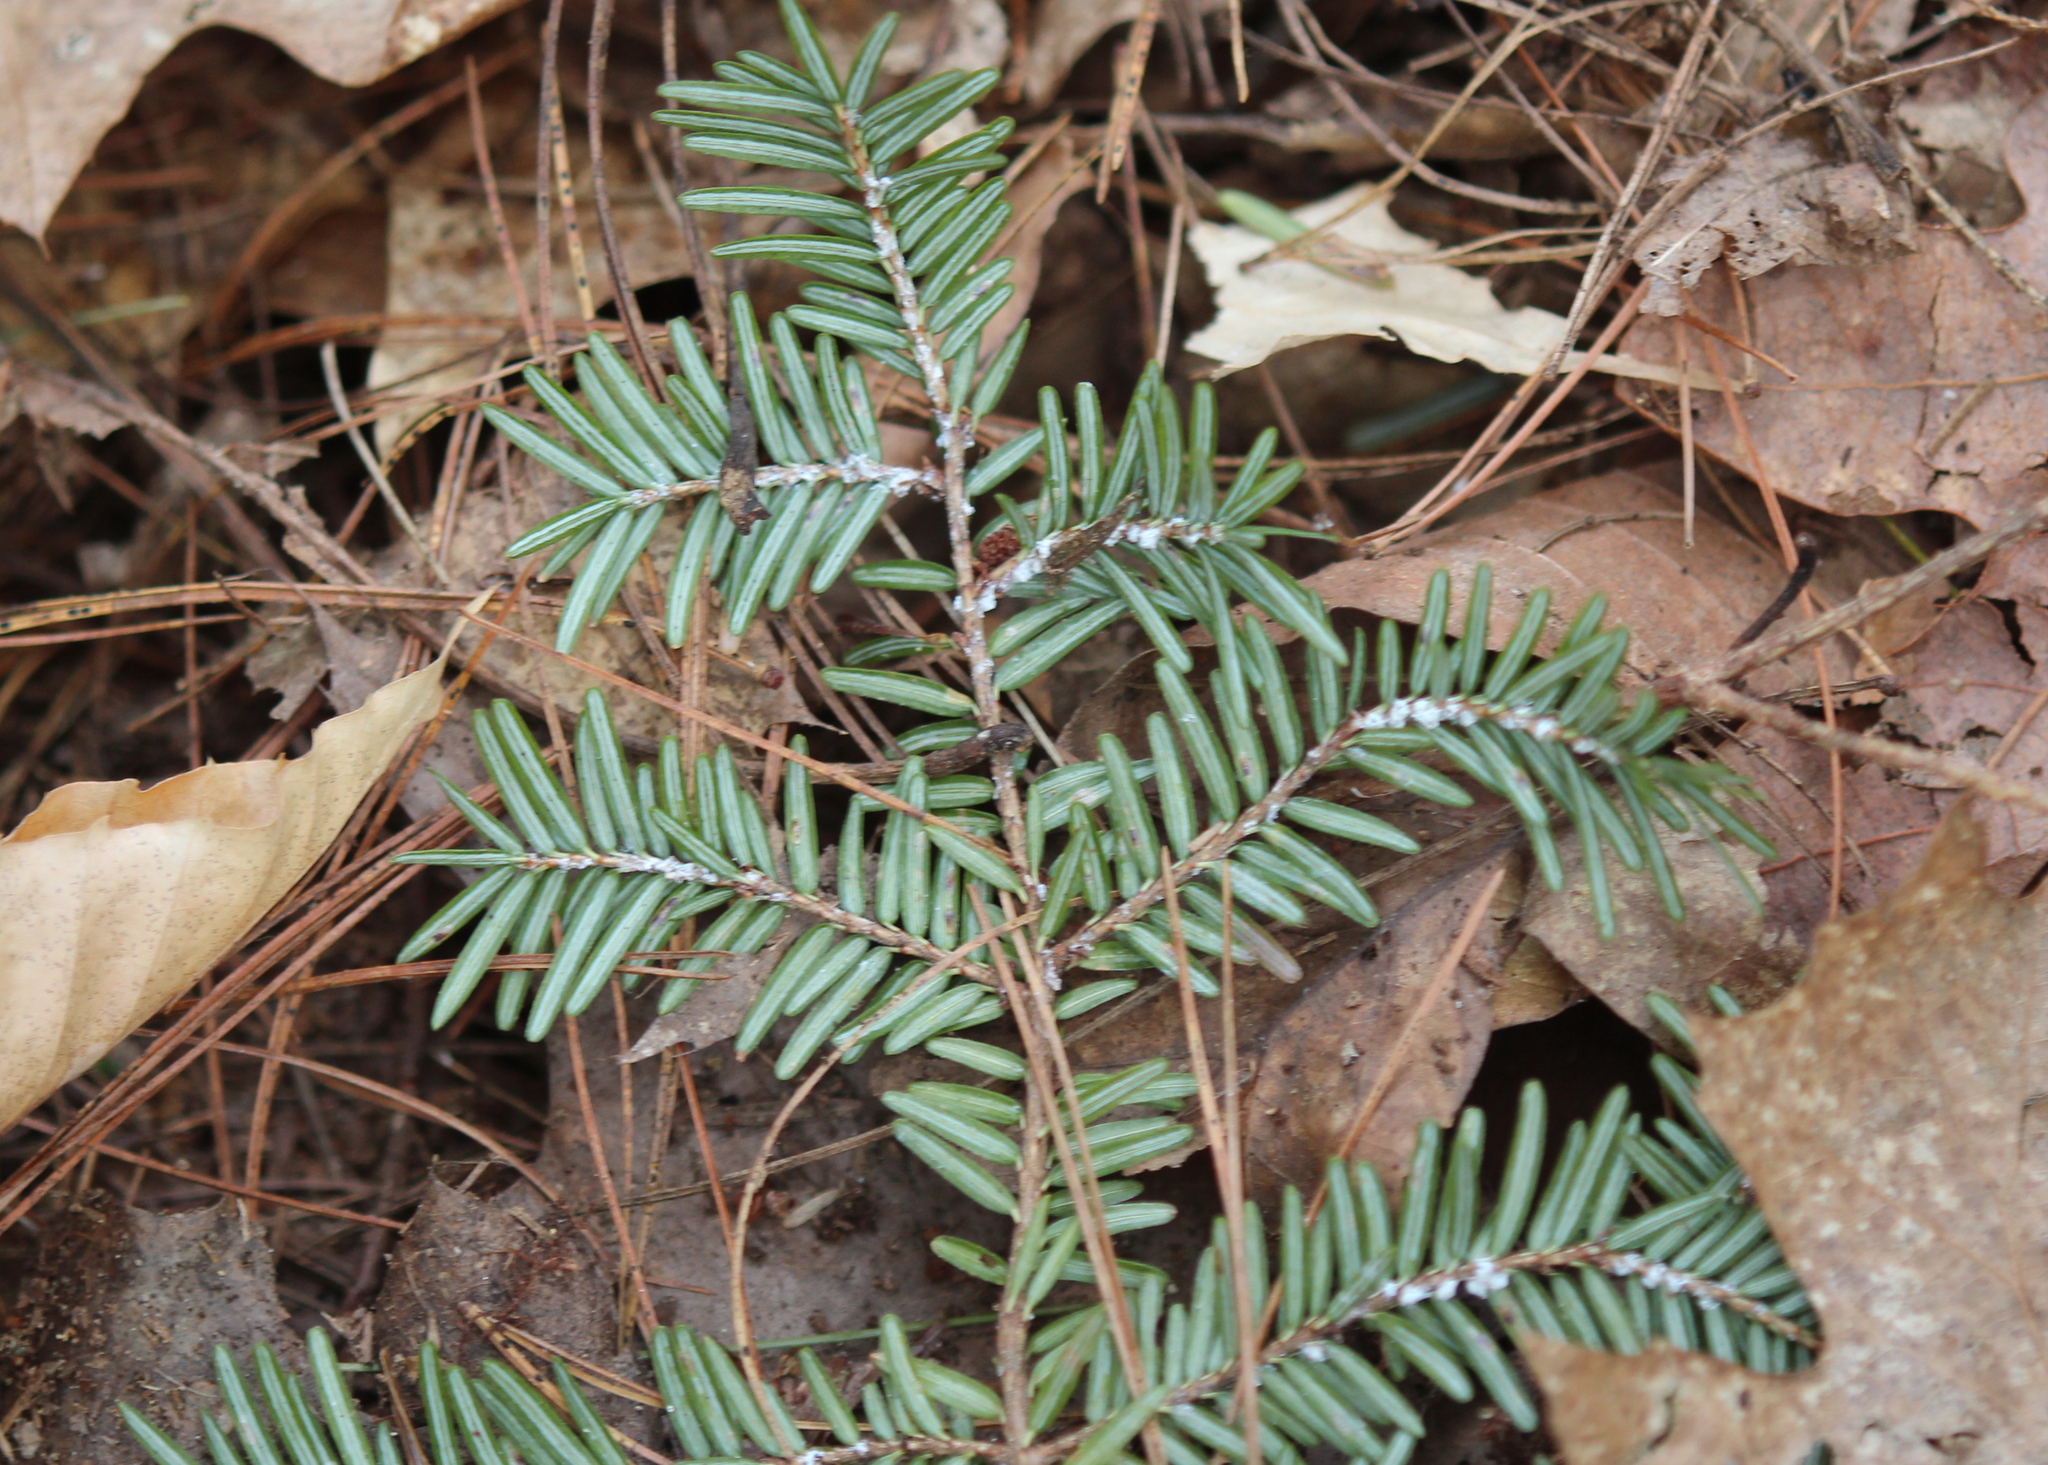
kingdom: Animalia
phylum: Arthropoda
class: Insecta
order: Hemiptera
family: Adelgidae
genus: Adelges
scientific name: Adelges tsugae
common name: Hemlock woolly adelgid
